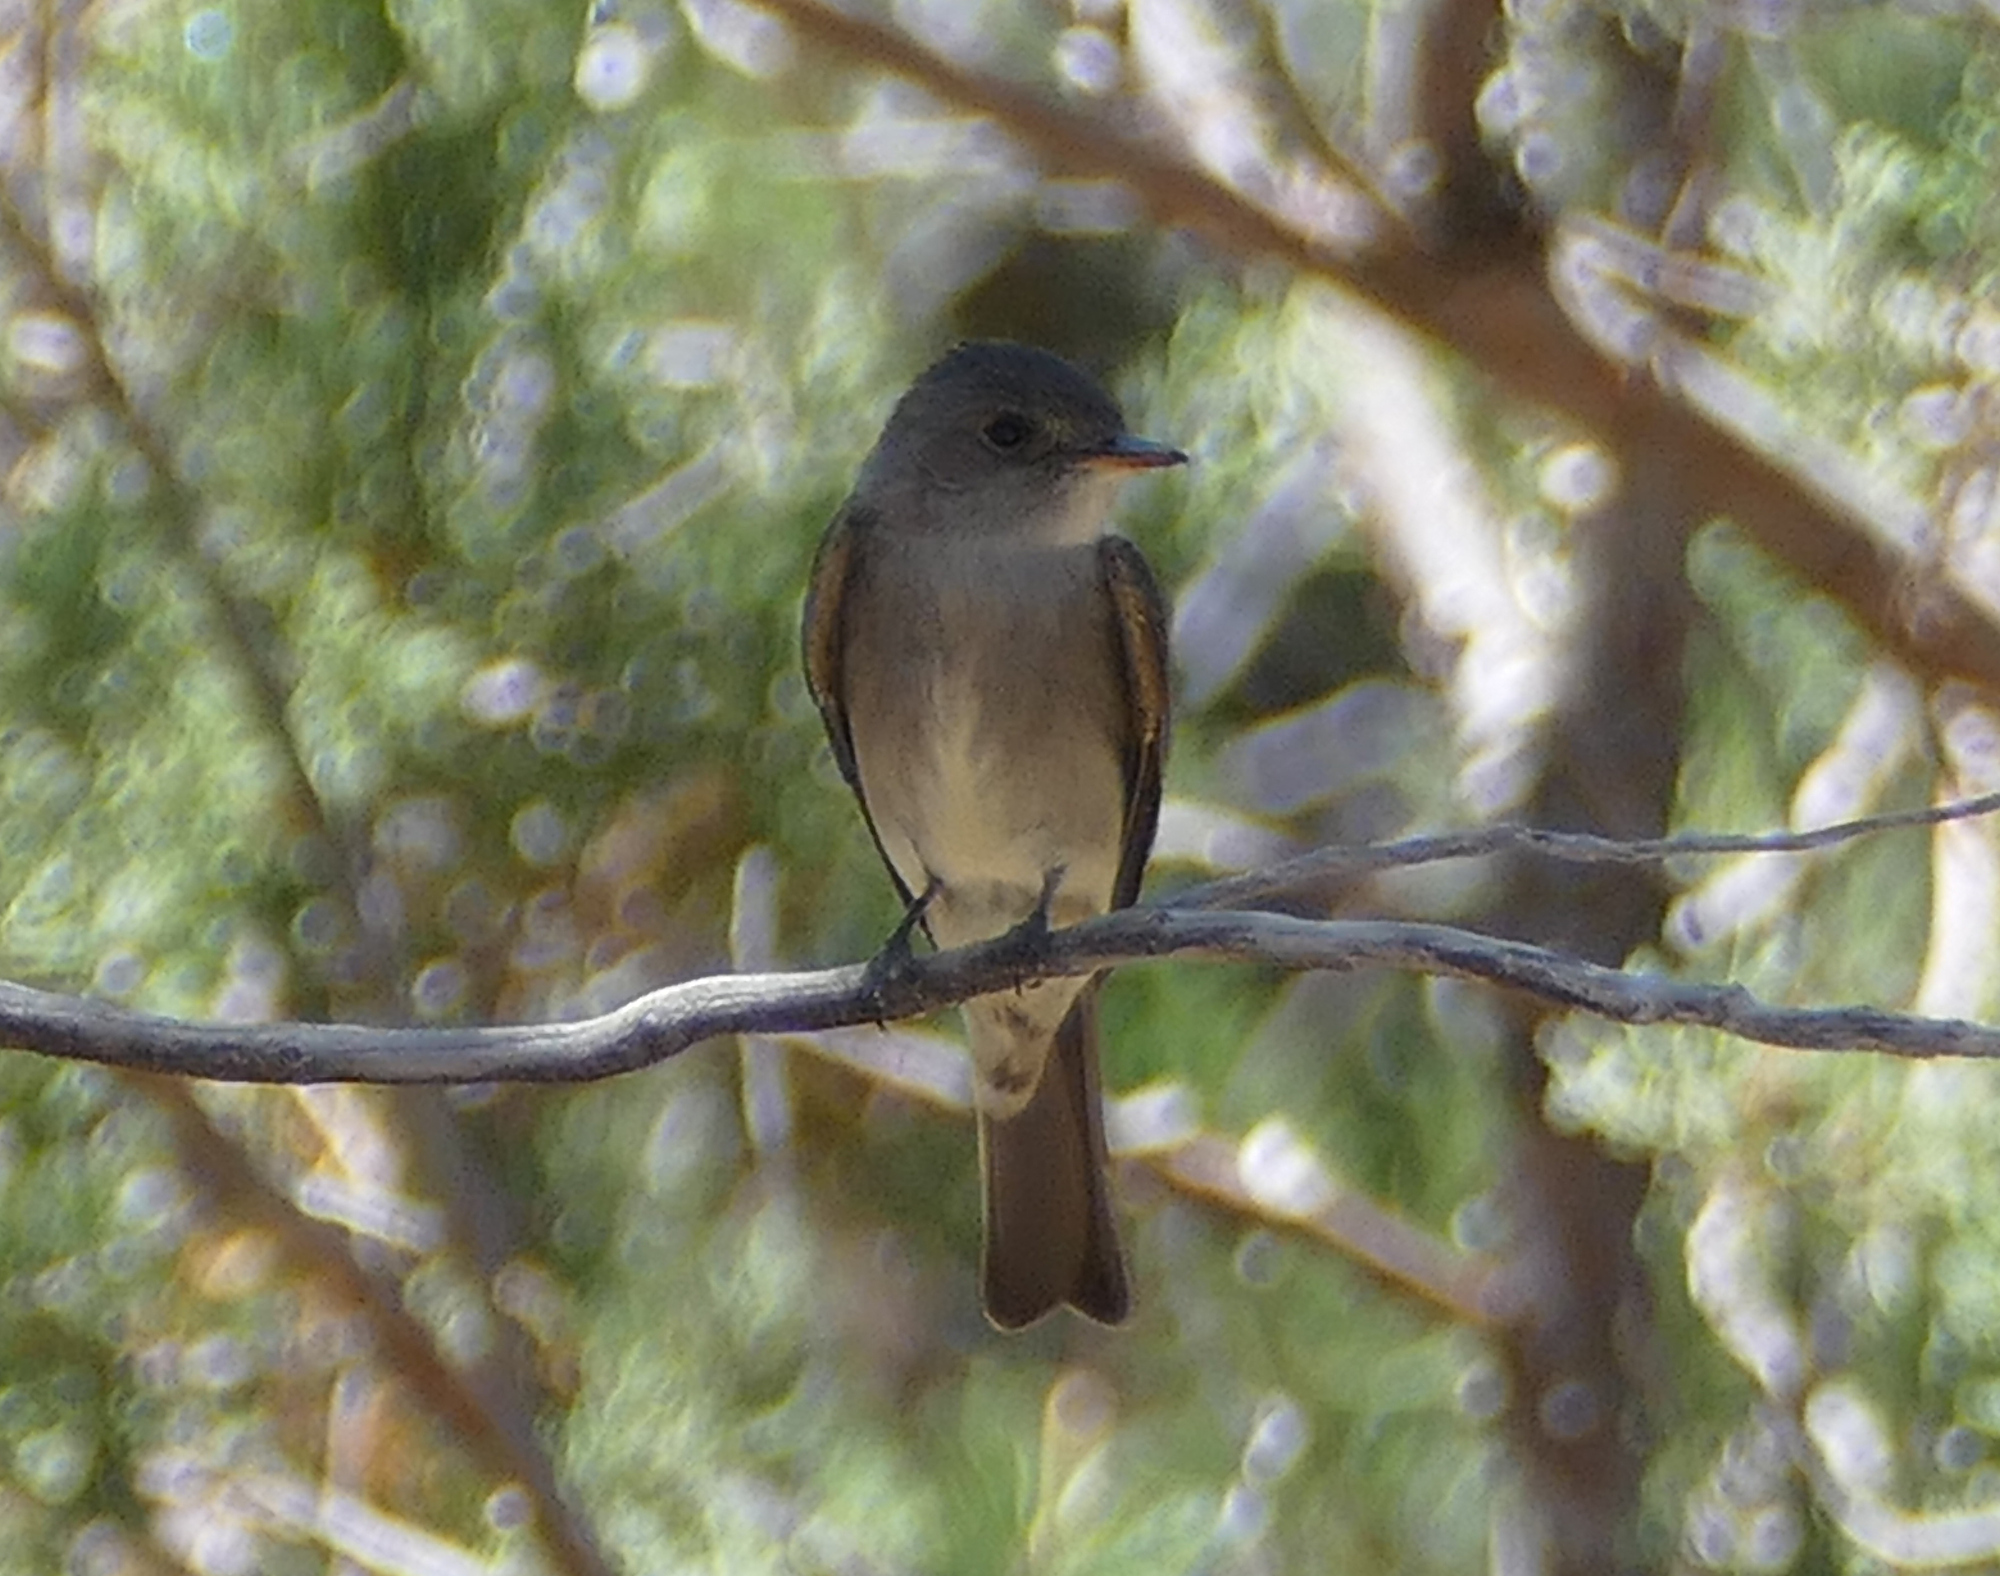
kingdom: Animalia
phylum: Chordata
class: Aves
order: Passeriformes
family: Tyrannidae
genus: Contopus
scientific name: Contopus sordidulus
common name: Western wood-pewee
